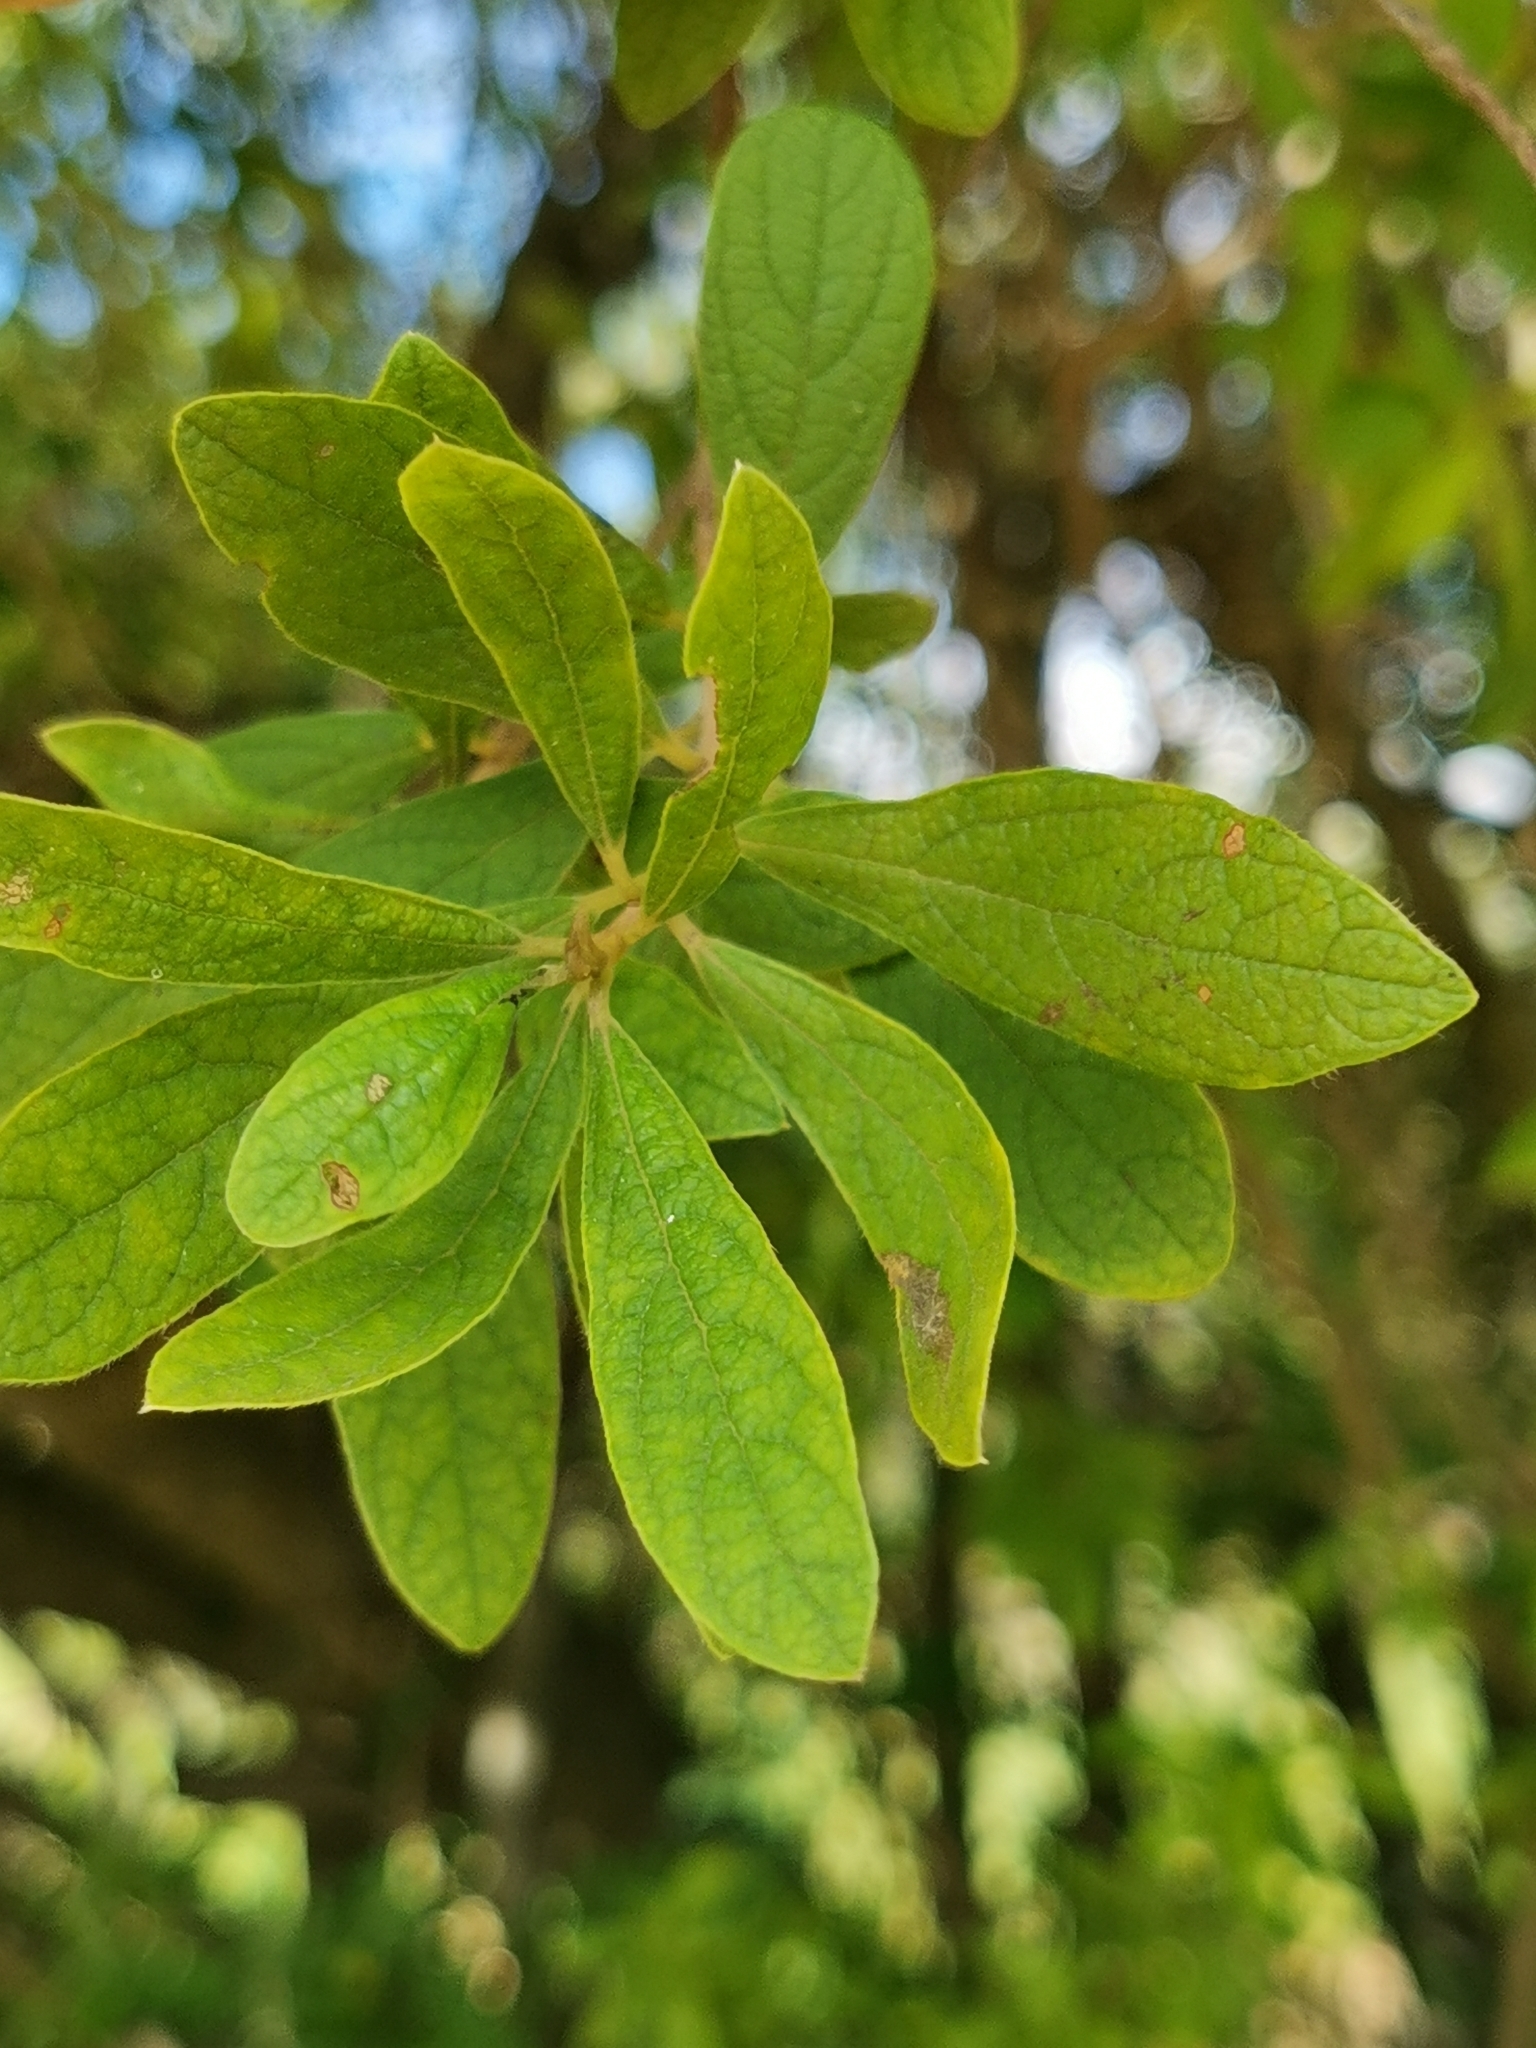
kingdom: Plantae
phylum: Tracheophyta
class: Magnoliopsida
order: Ericales
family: Ebenaceae
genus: Diospyros
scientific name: Diospyros lycioides
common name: Red star apple
